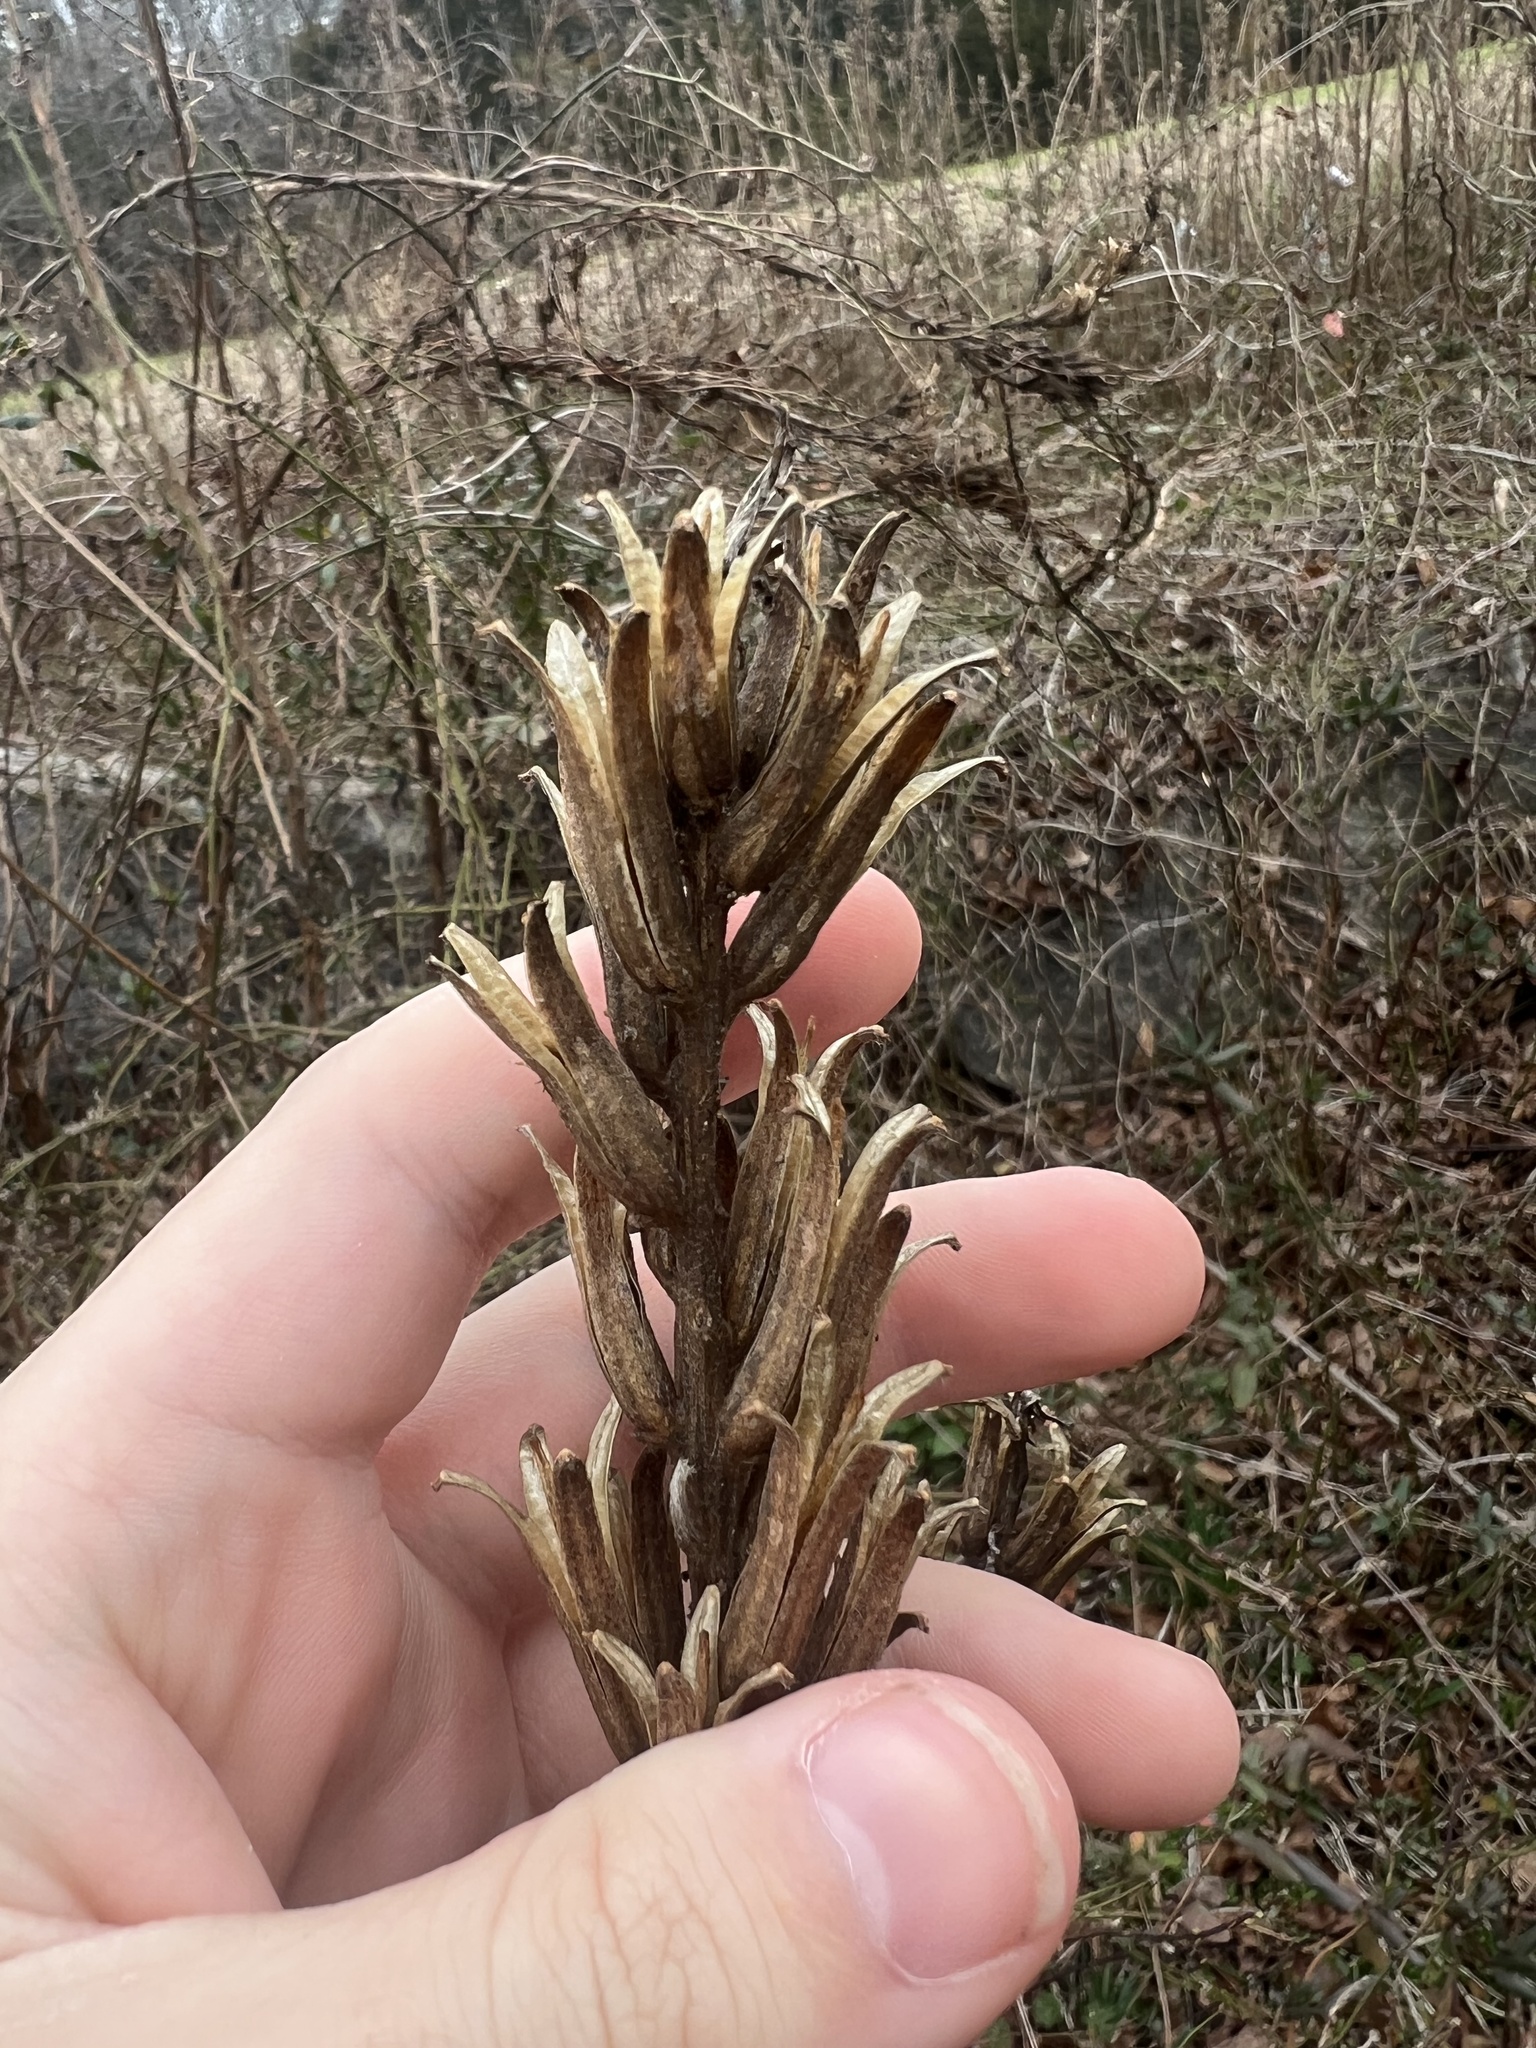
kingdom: Plantae
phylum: Tracheophyta
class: Magnoliopsida
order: Myrtales
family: Onagraceae
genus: Oenothera
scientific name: Oenothera biennis
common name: Common evening-primrose
